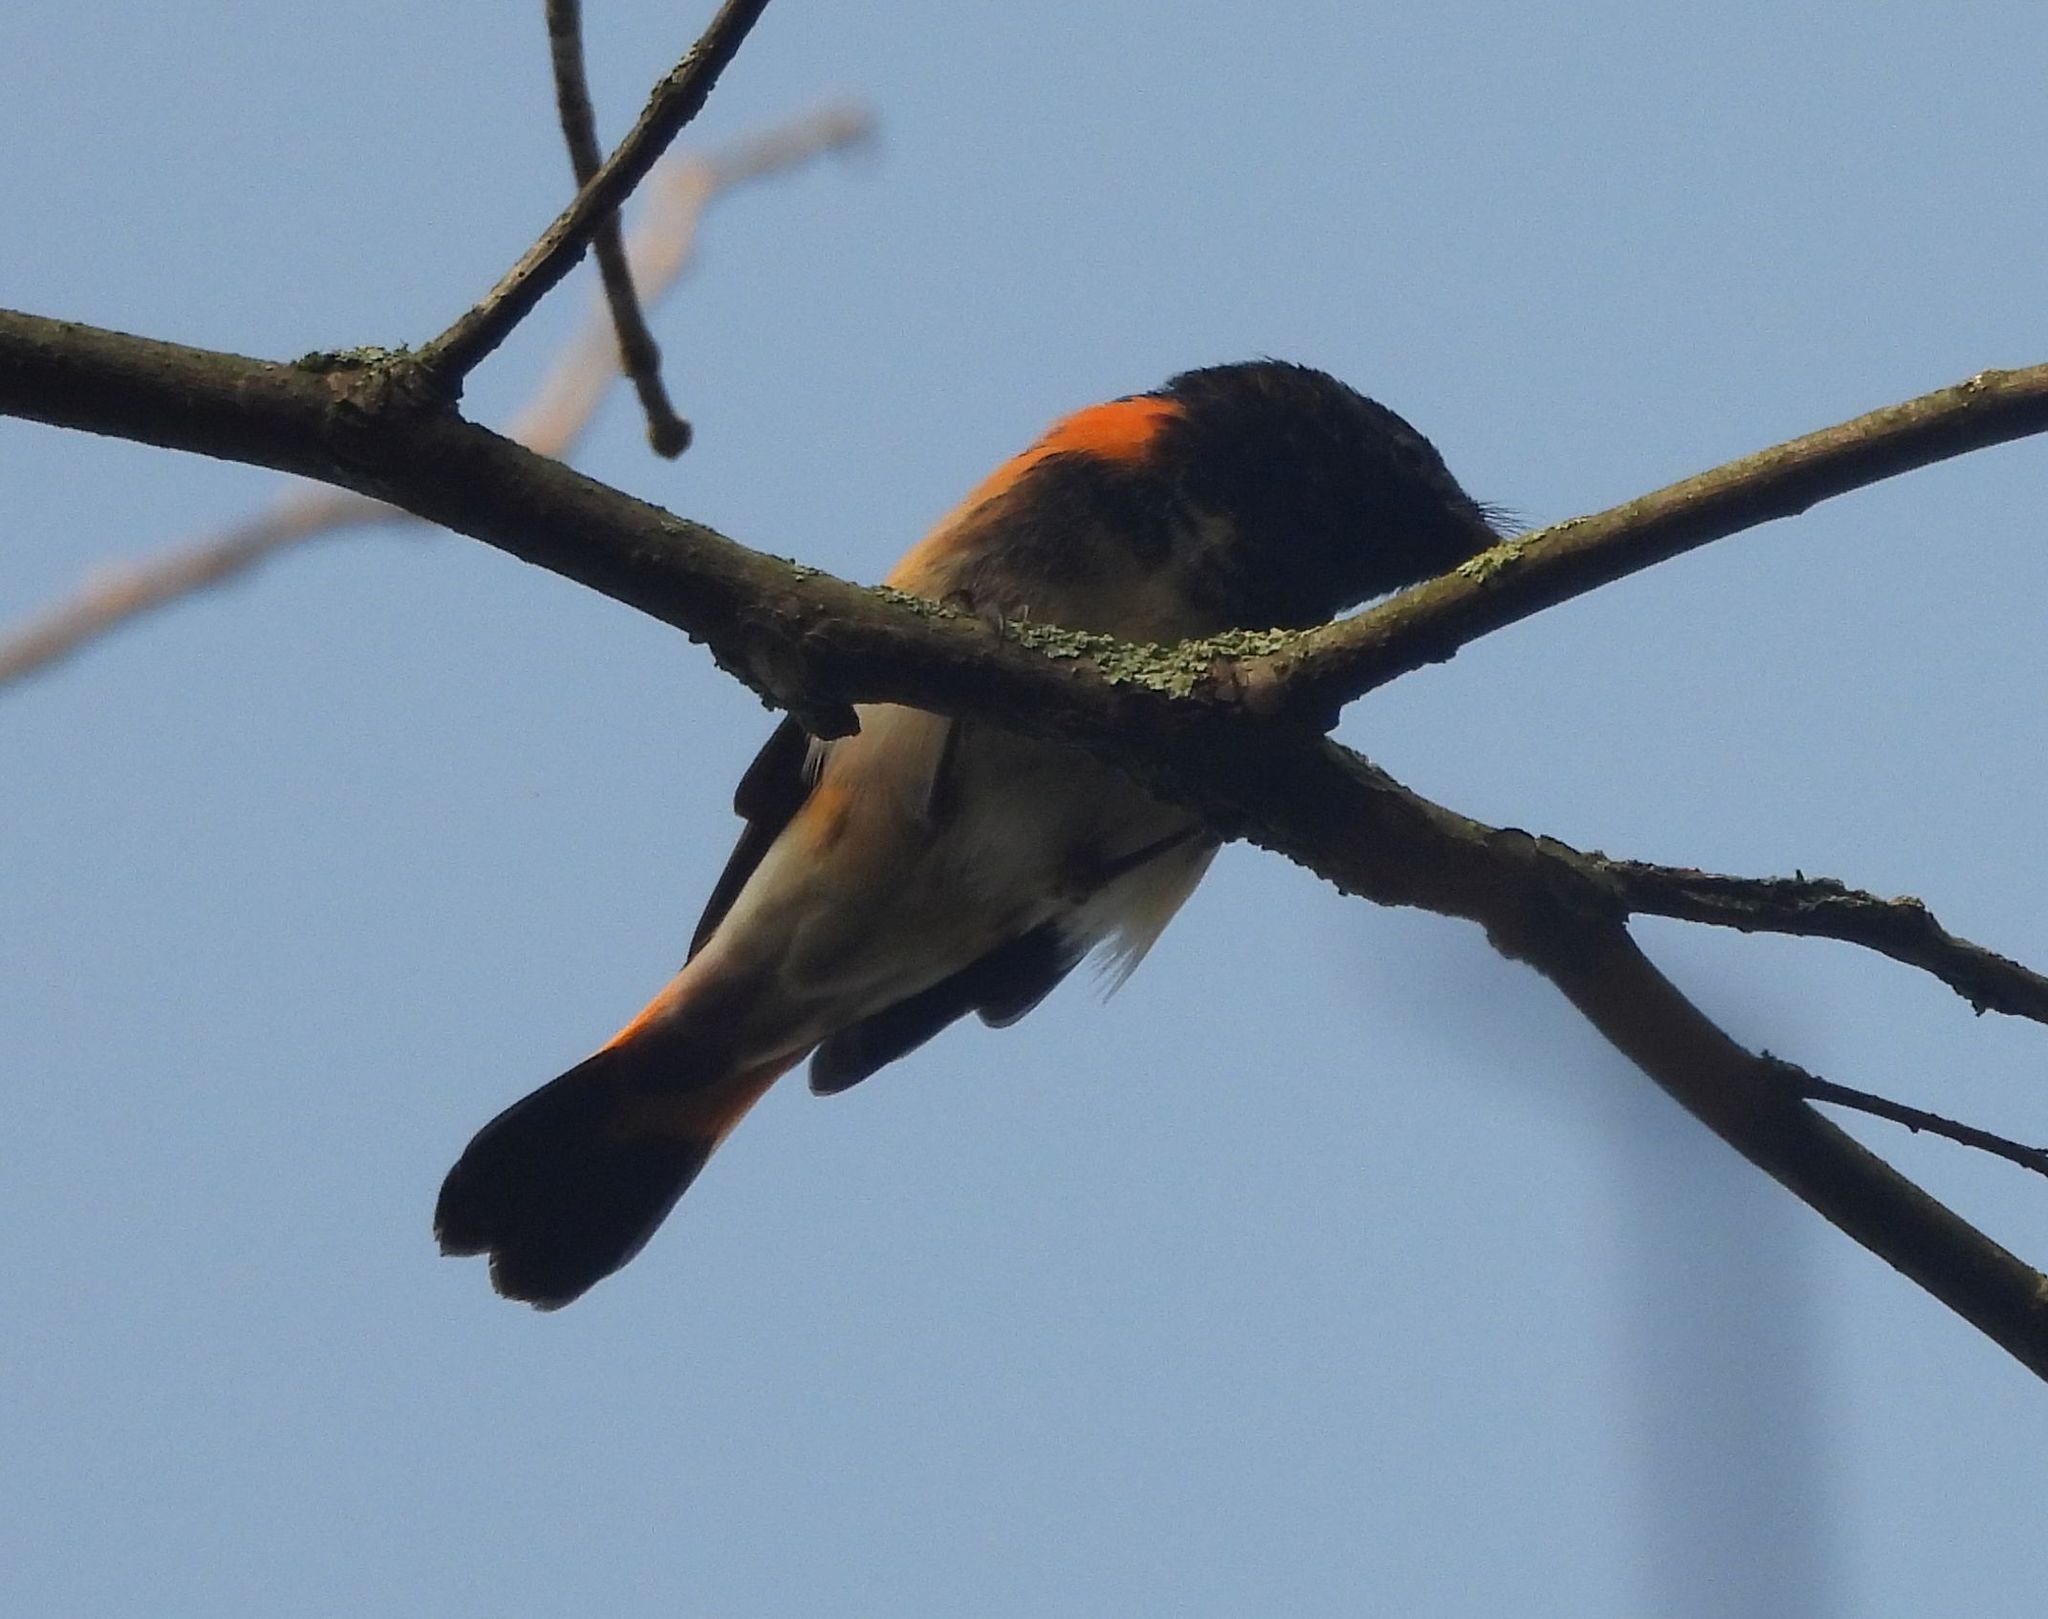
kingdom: Animalia
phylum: Chordata
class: Aves
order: Passeriformes
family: Parulidae
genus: Setophaga
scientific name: Setophaga ruticilla
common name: American redstart
